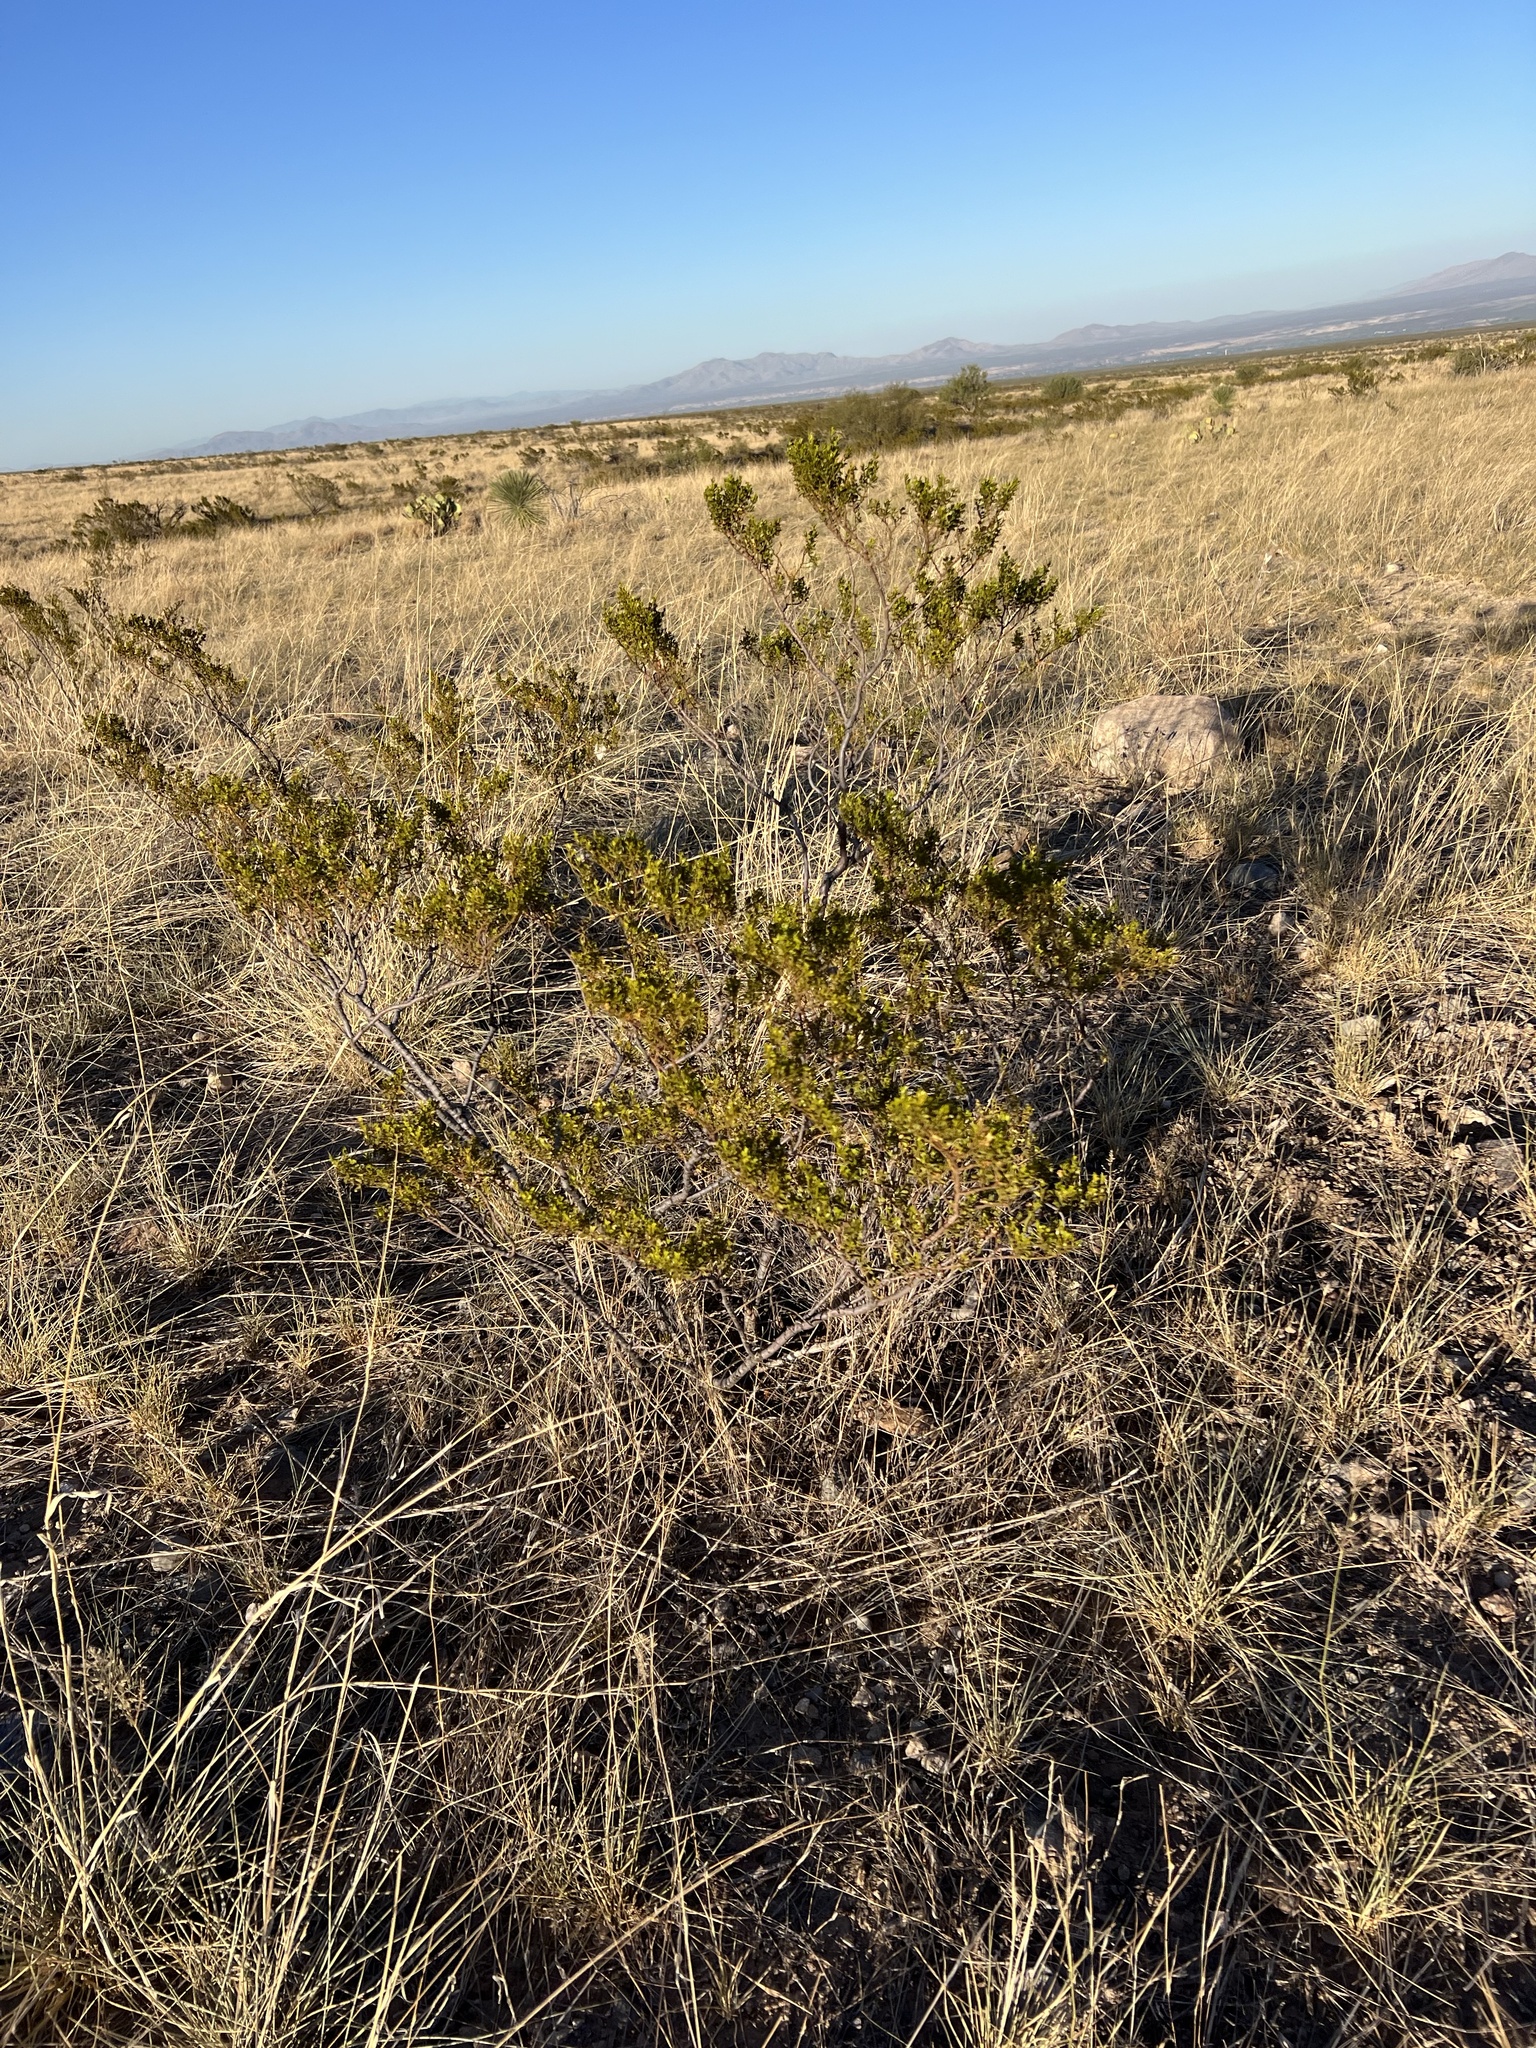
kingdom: Plantae
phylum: Tracheophyta
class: Magnoliopsida
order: Zygophyllales
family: Zygophyllaceae
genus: Larrea
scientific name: Larrea tridentata
